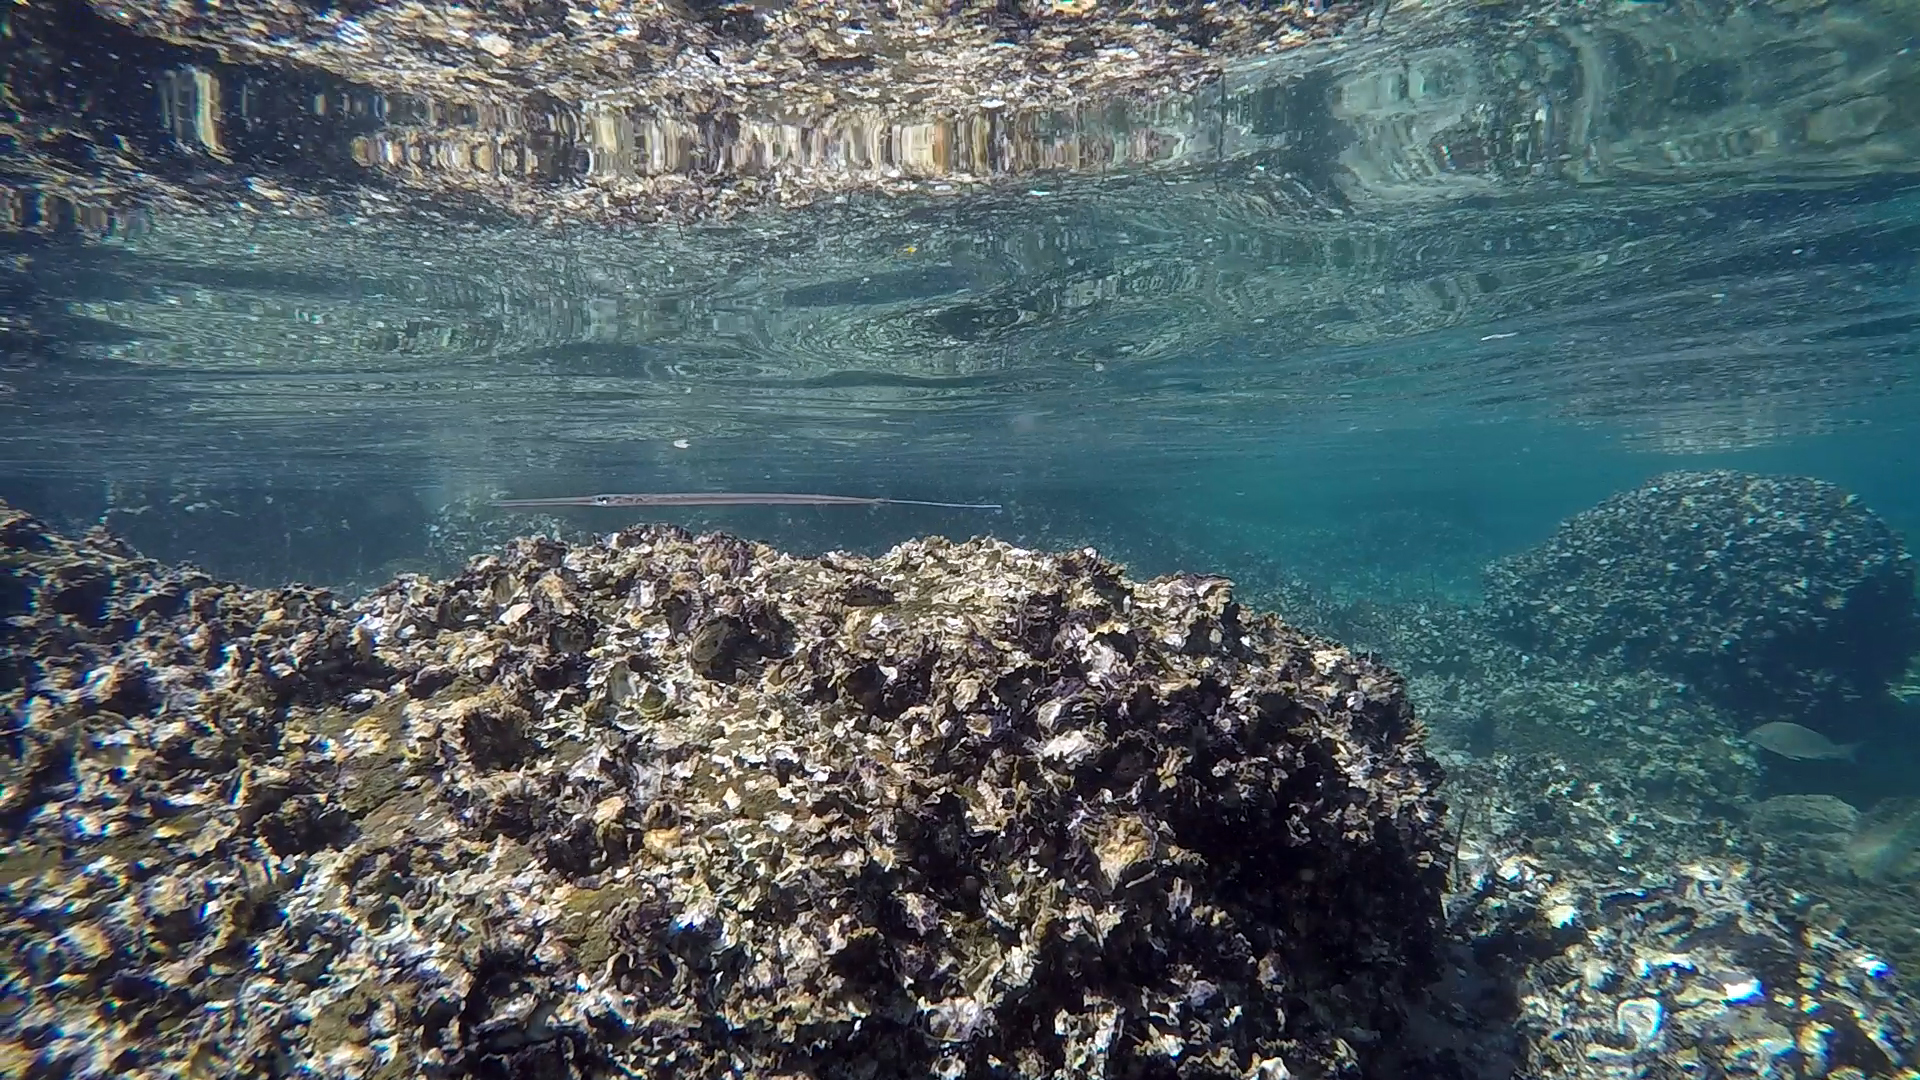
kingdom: Animalia
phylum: Chordata
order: Syngnathiformes
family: Fistulariidae
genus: Fistularia
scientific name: Fistularia commersonii
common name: Bluespotted cornetfish
